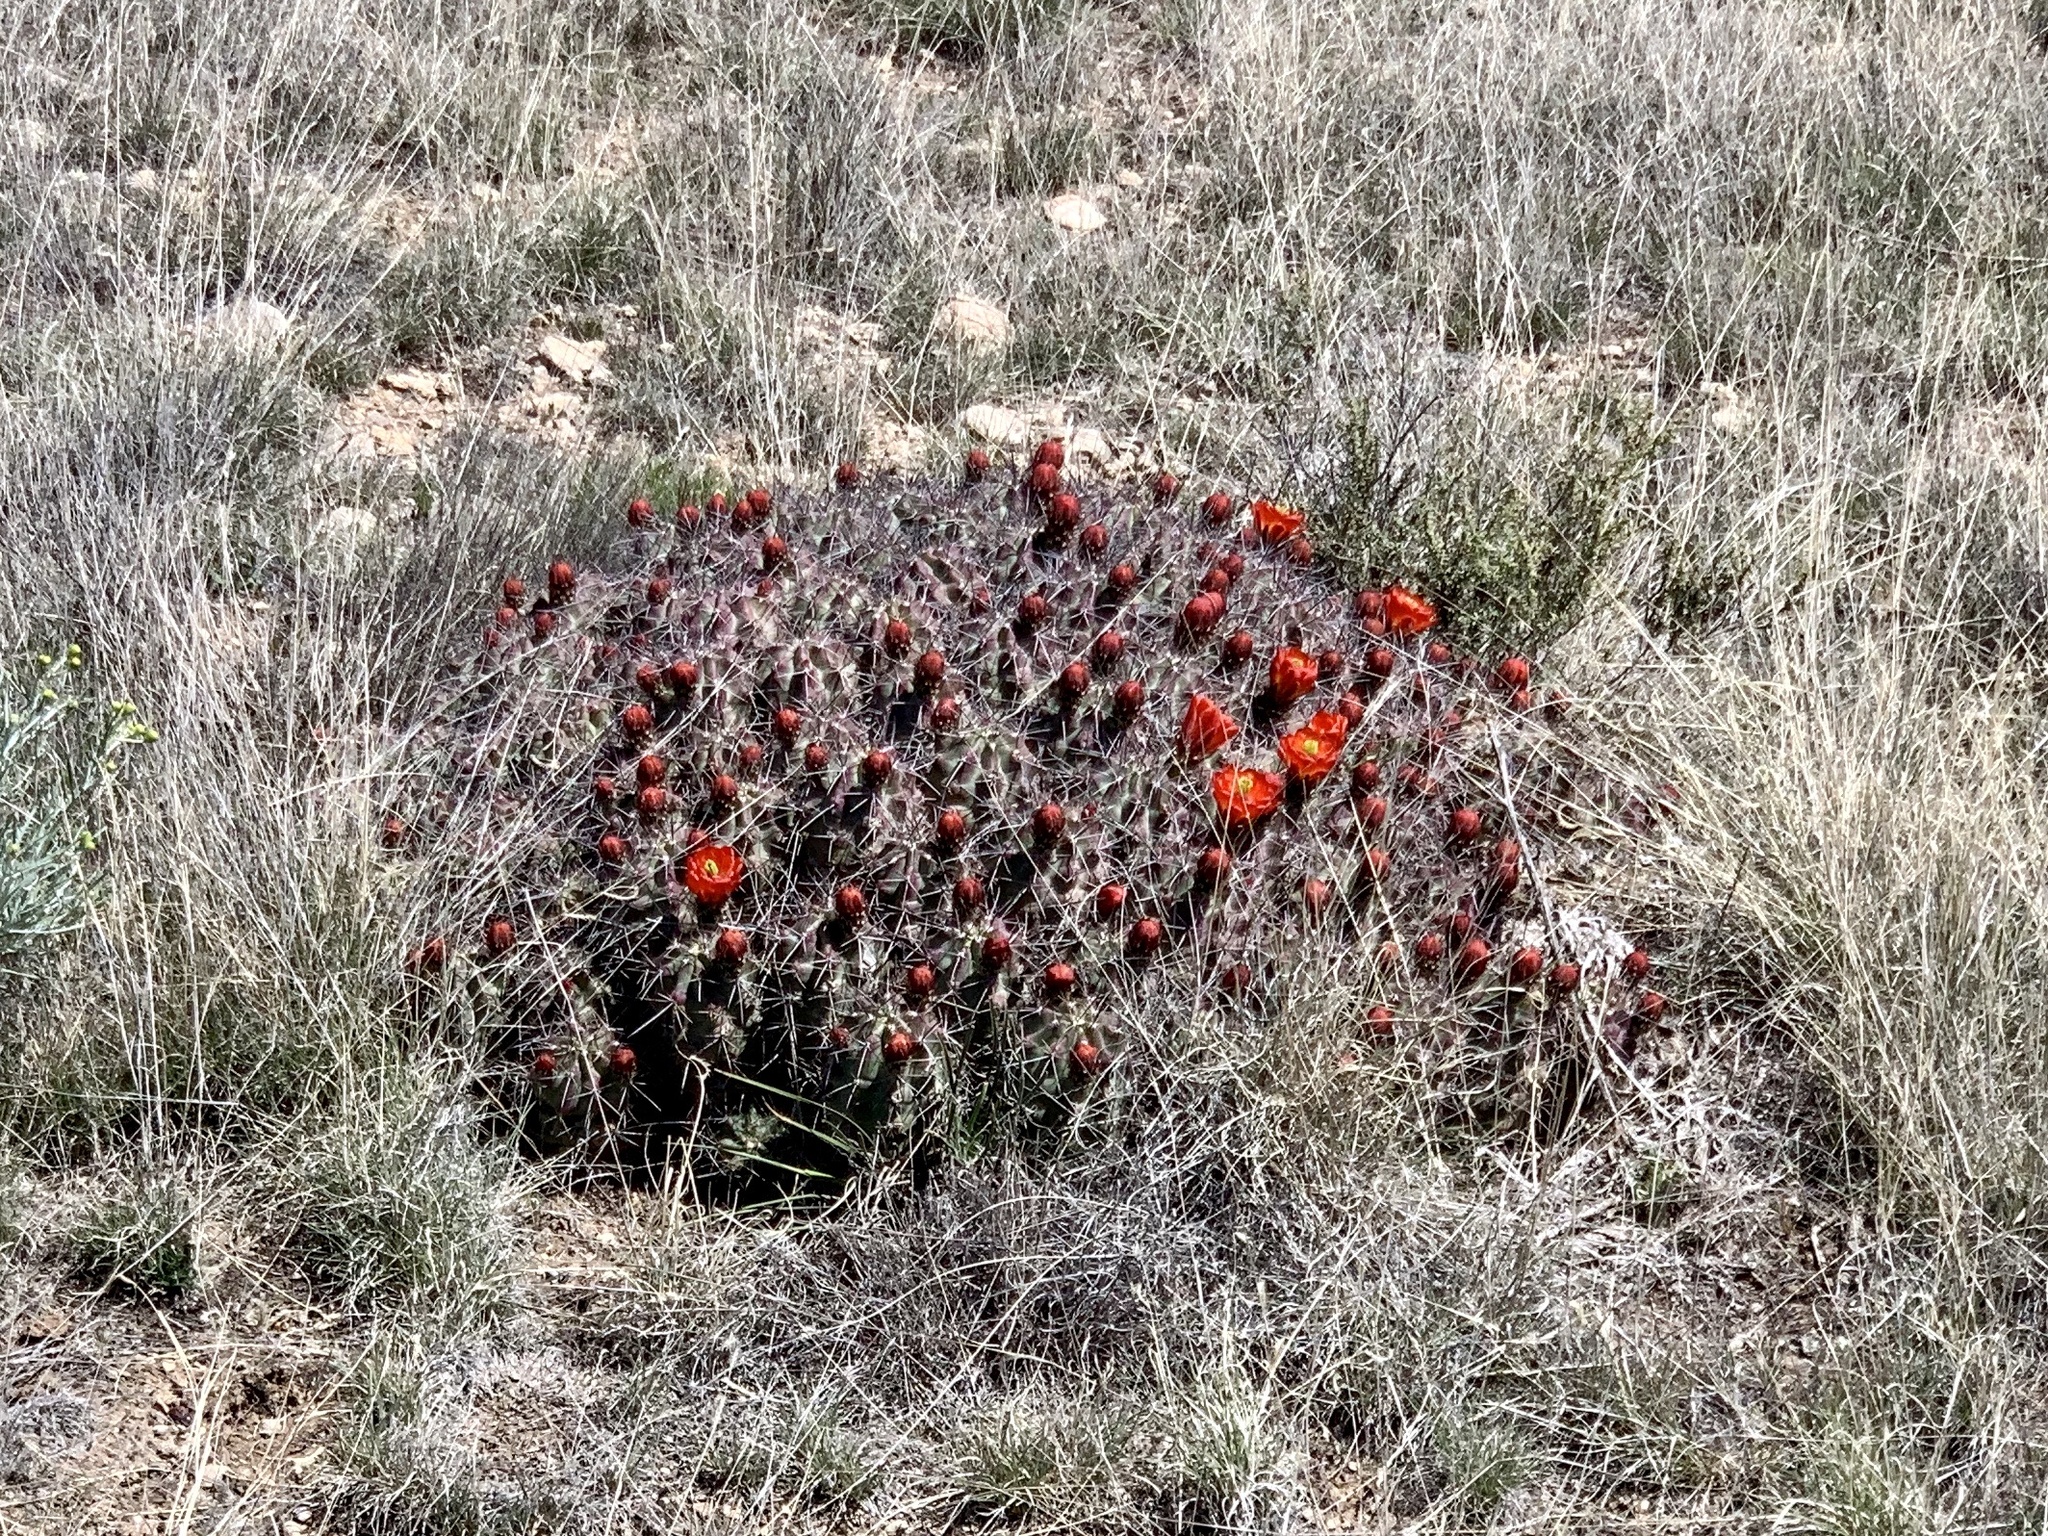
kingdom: Plantae
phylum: Tracheophyta
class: Magnoliopsida
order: Caryophyllales
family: Cactaceae
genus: Echinocereus
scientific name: Echinocereus coccineus
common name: Scarlet hedgehog cactus
